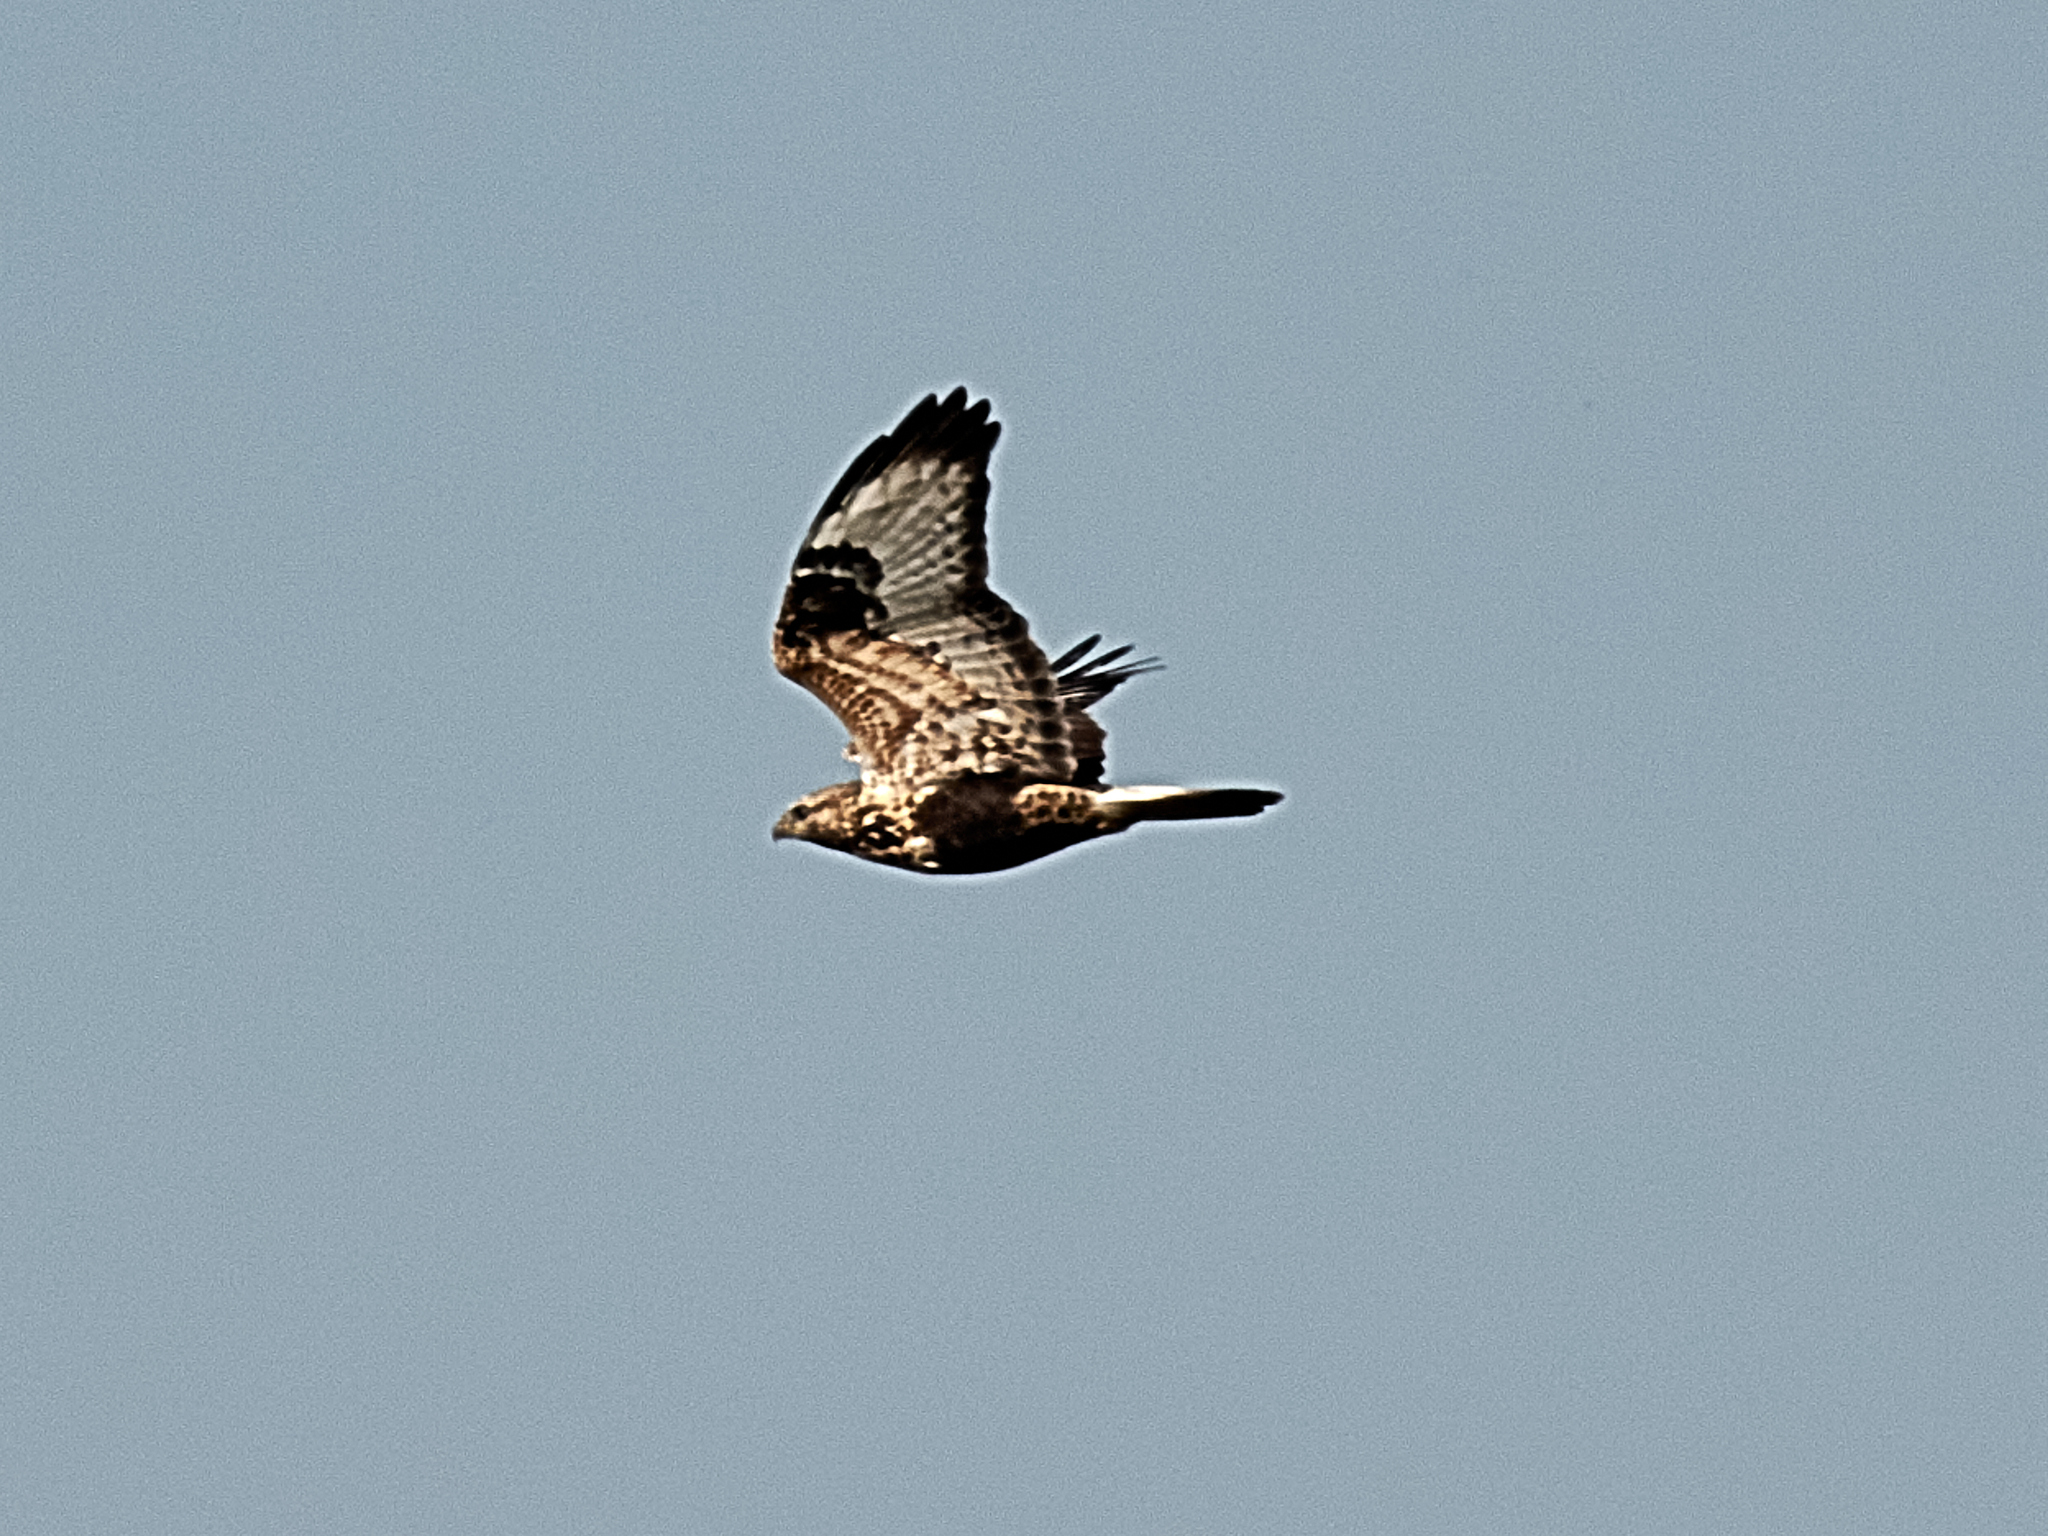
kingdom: Animalia
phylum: Chordata
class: Aves
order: Accipitriformes
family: Accipitridae
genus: Buteo
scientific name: Buteo lagopus
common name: Rough-legged buzzard
